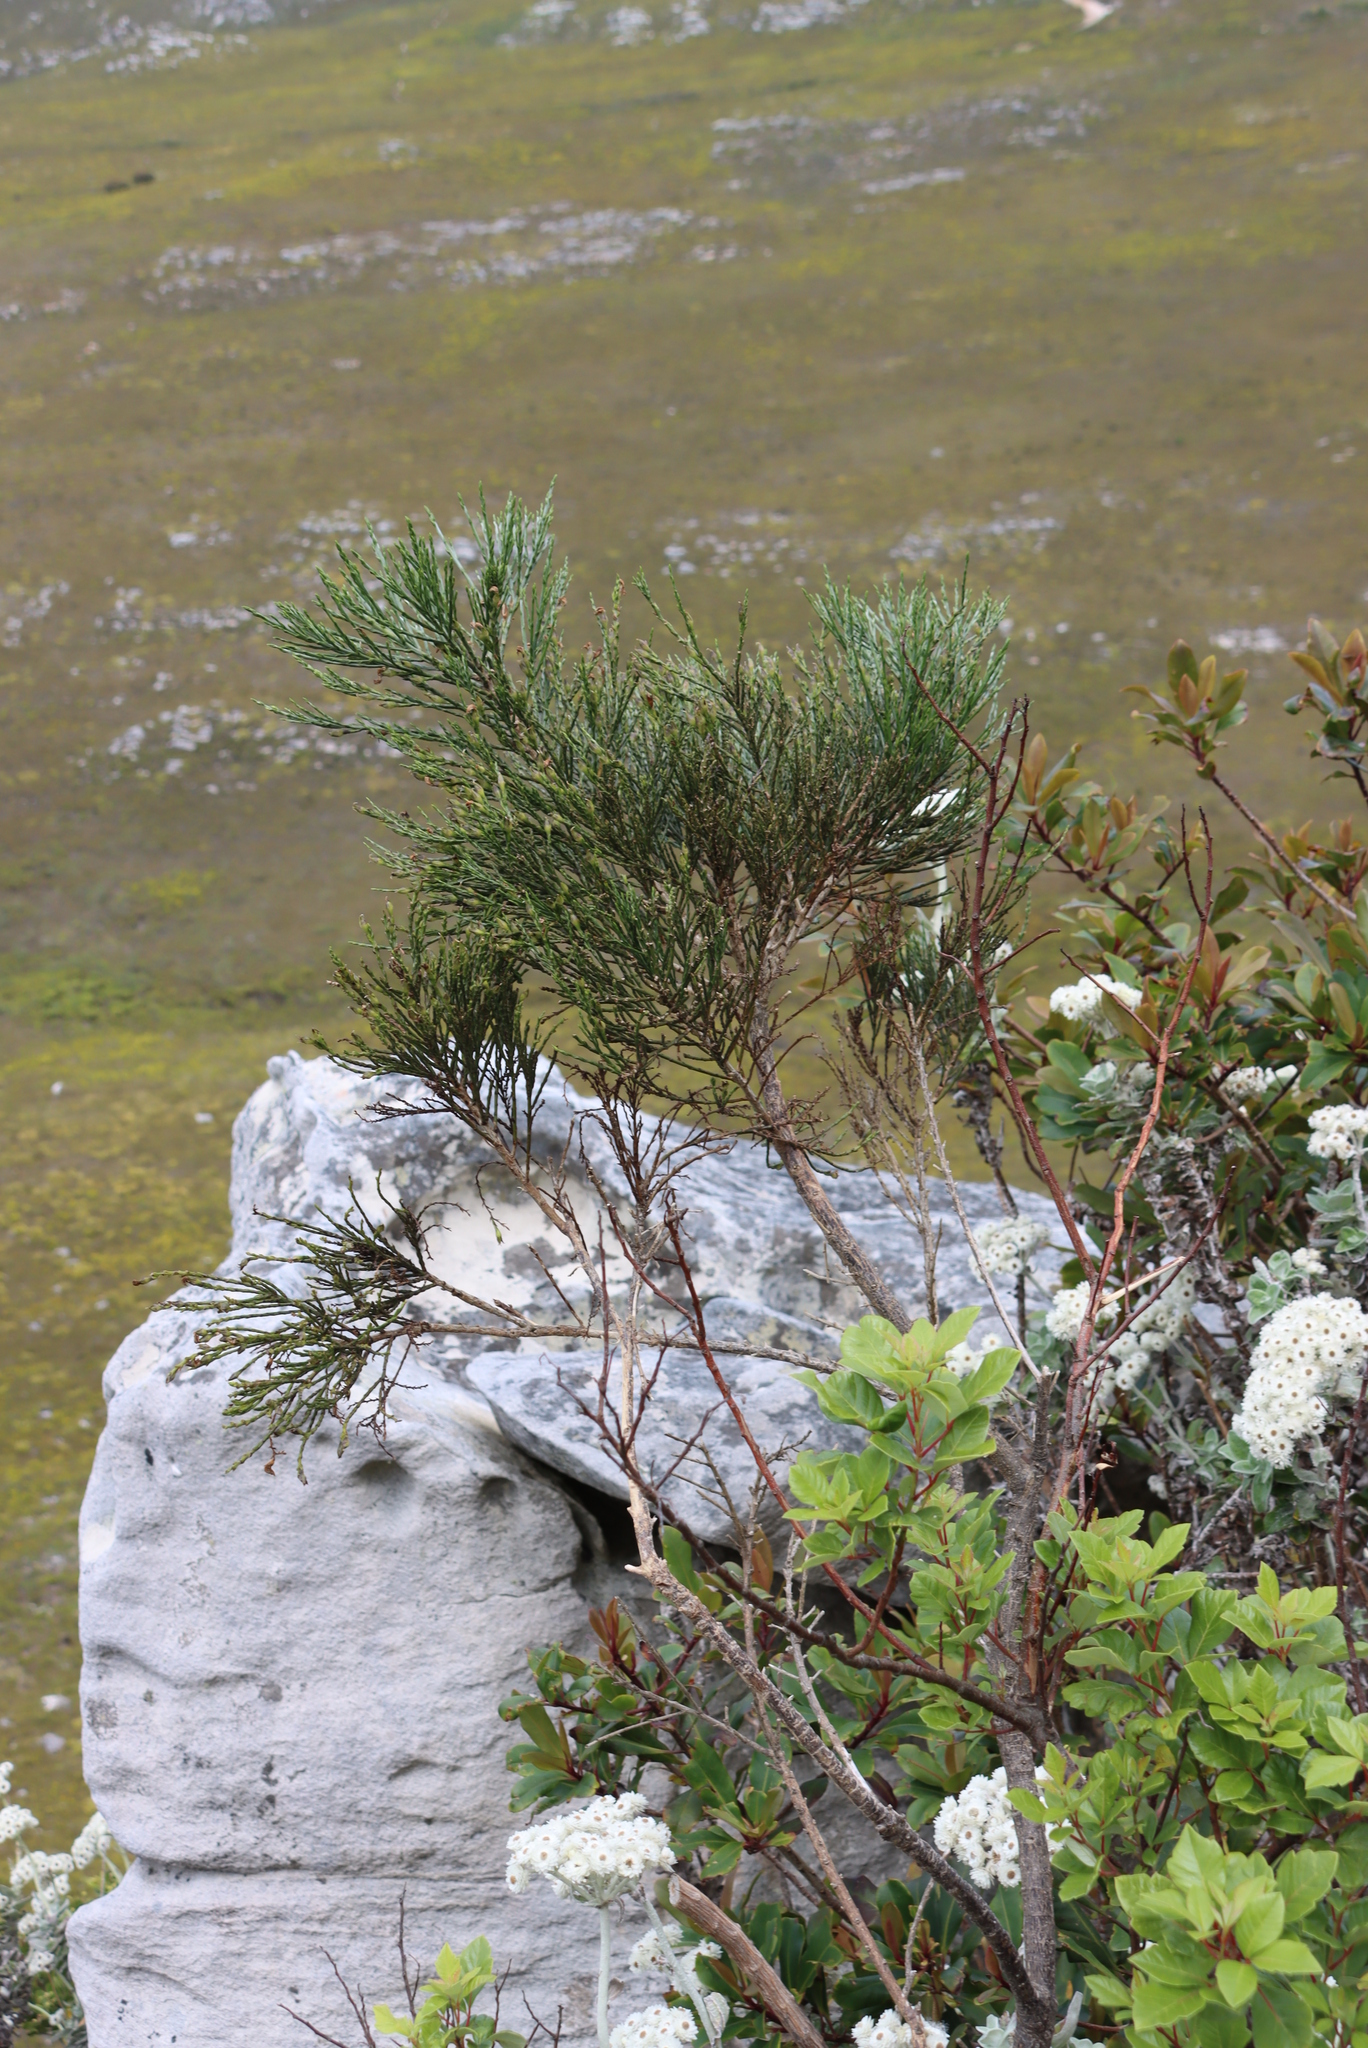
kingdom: Plantae
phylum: Tracheophyta
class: Magnoliopsida
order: Fabales
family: Fabaceae
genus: Psoralea
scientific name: Psoralea congesta
